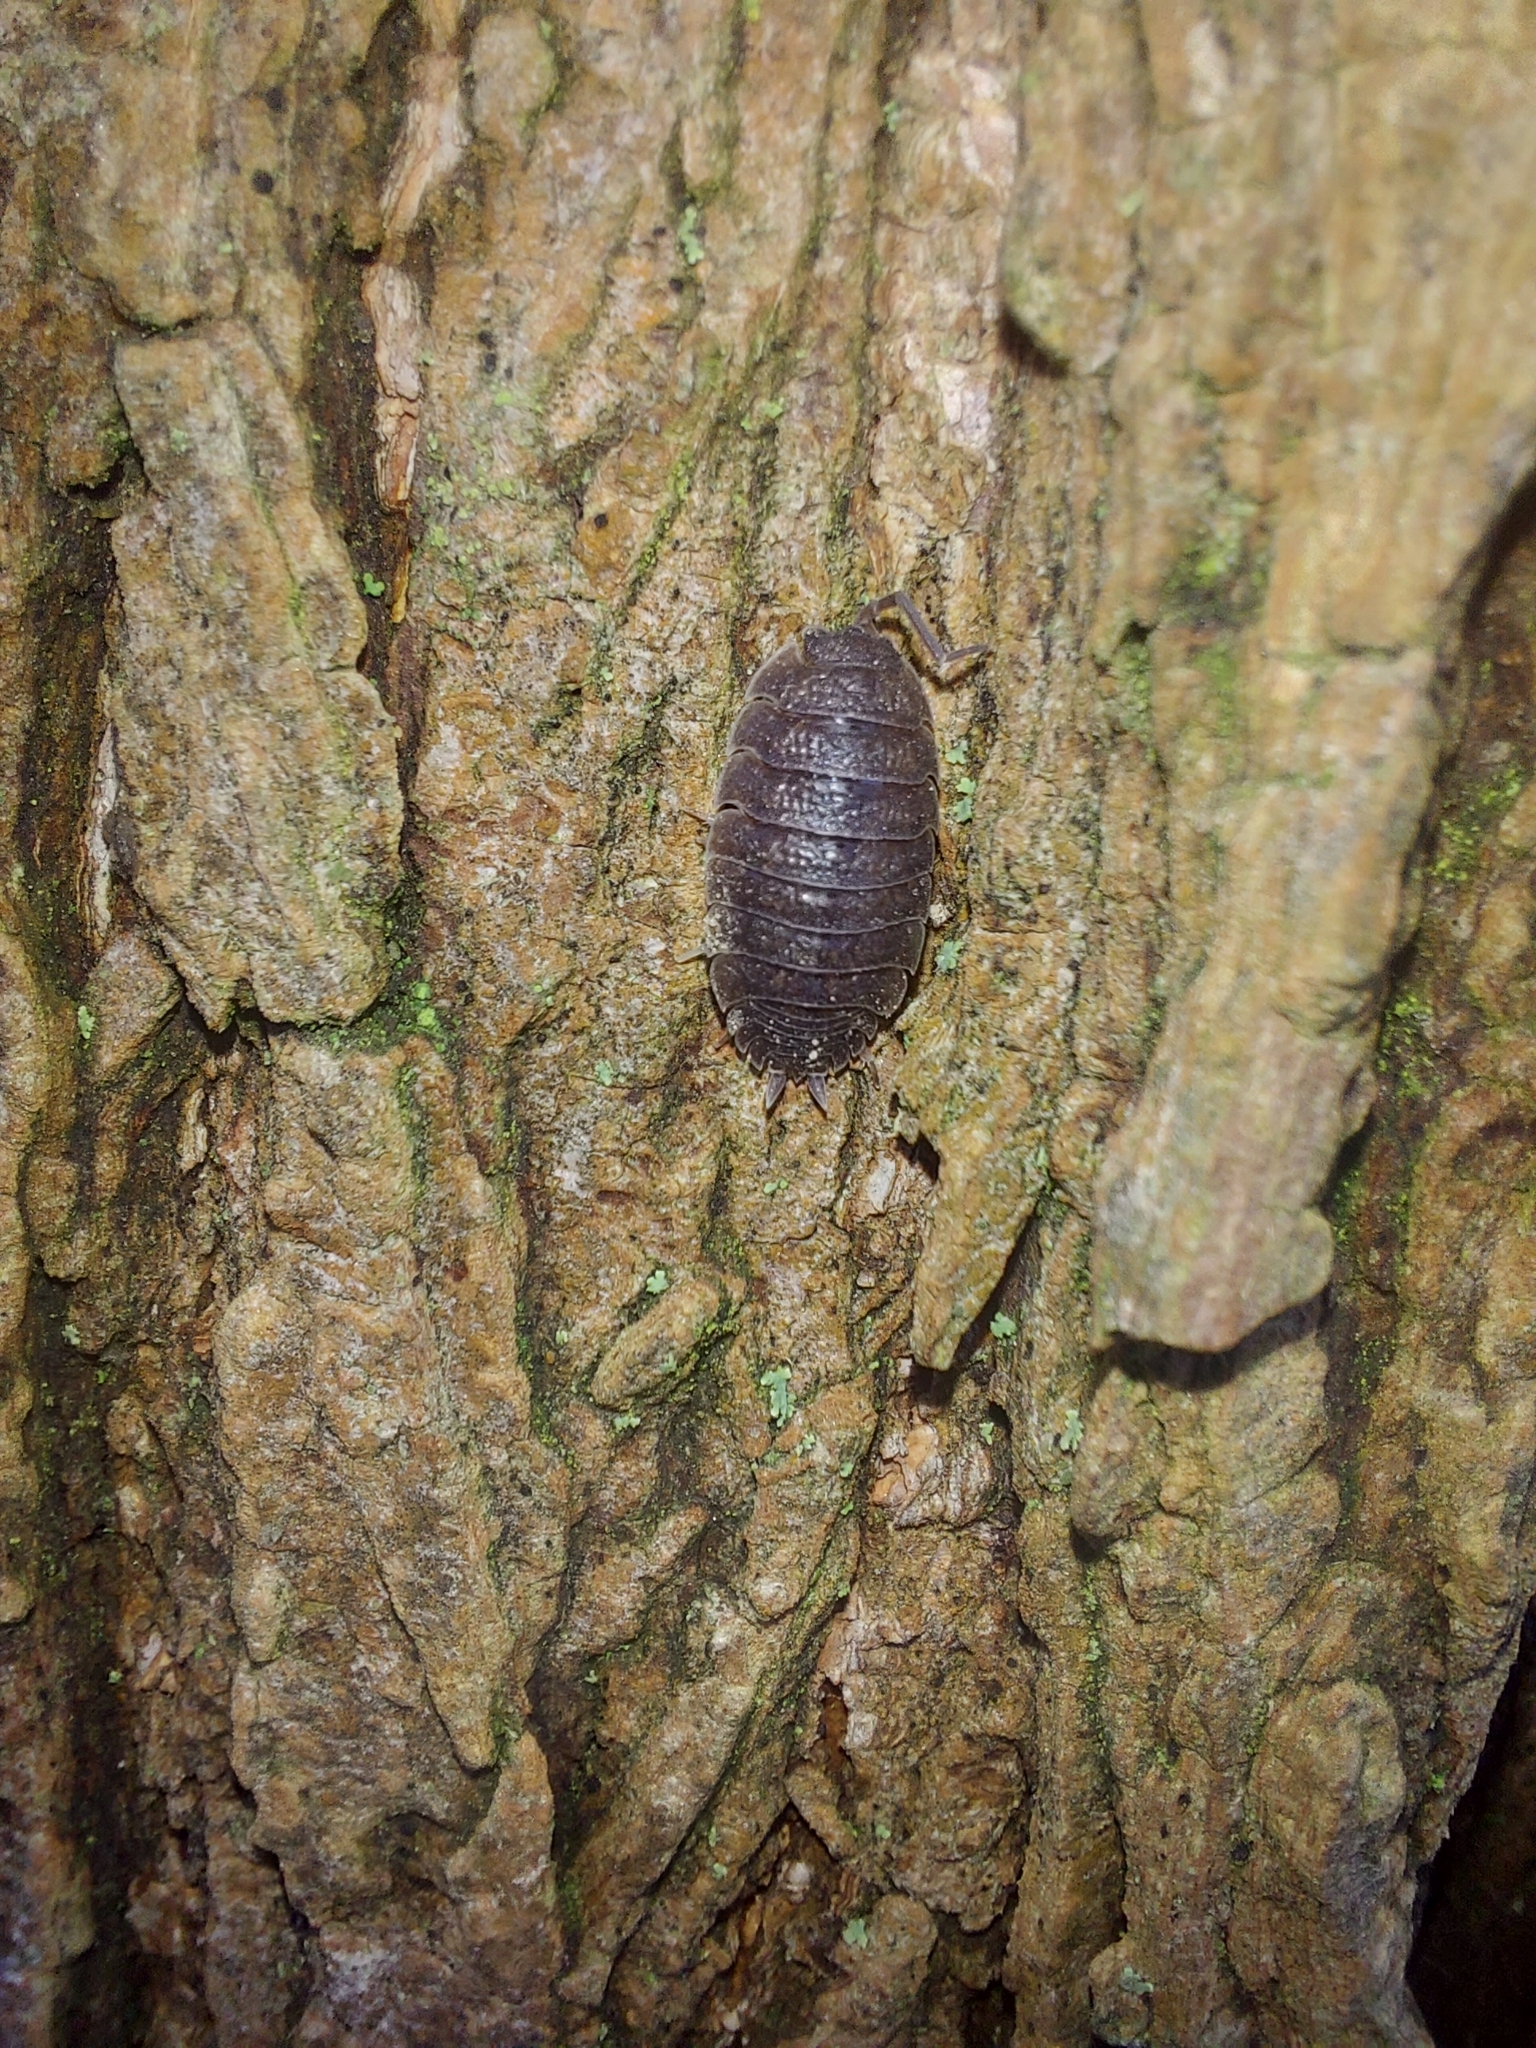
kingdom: Animalia
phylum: Arthropoda
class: Malacostraca
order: Isopoda
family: Porcellionidae
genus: Porcellio
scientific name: Porcellio scaber
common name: Common rough woodlouse
